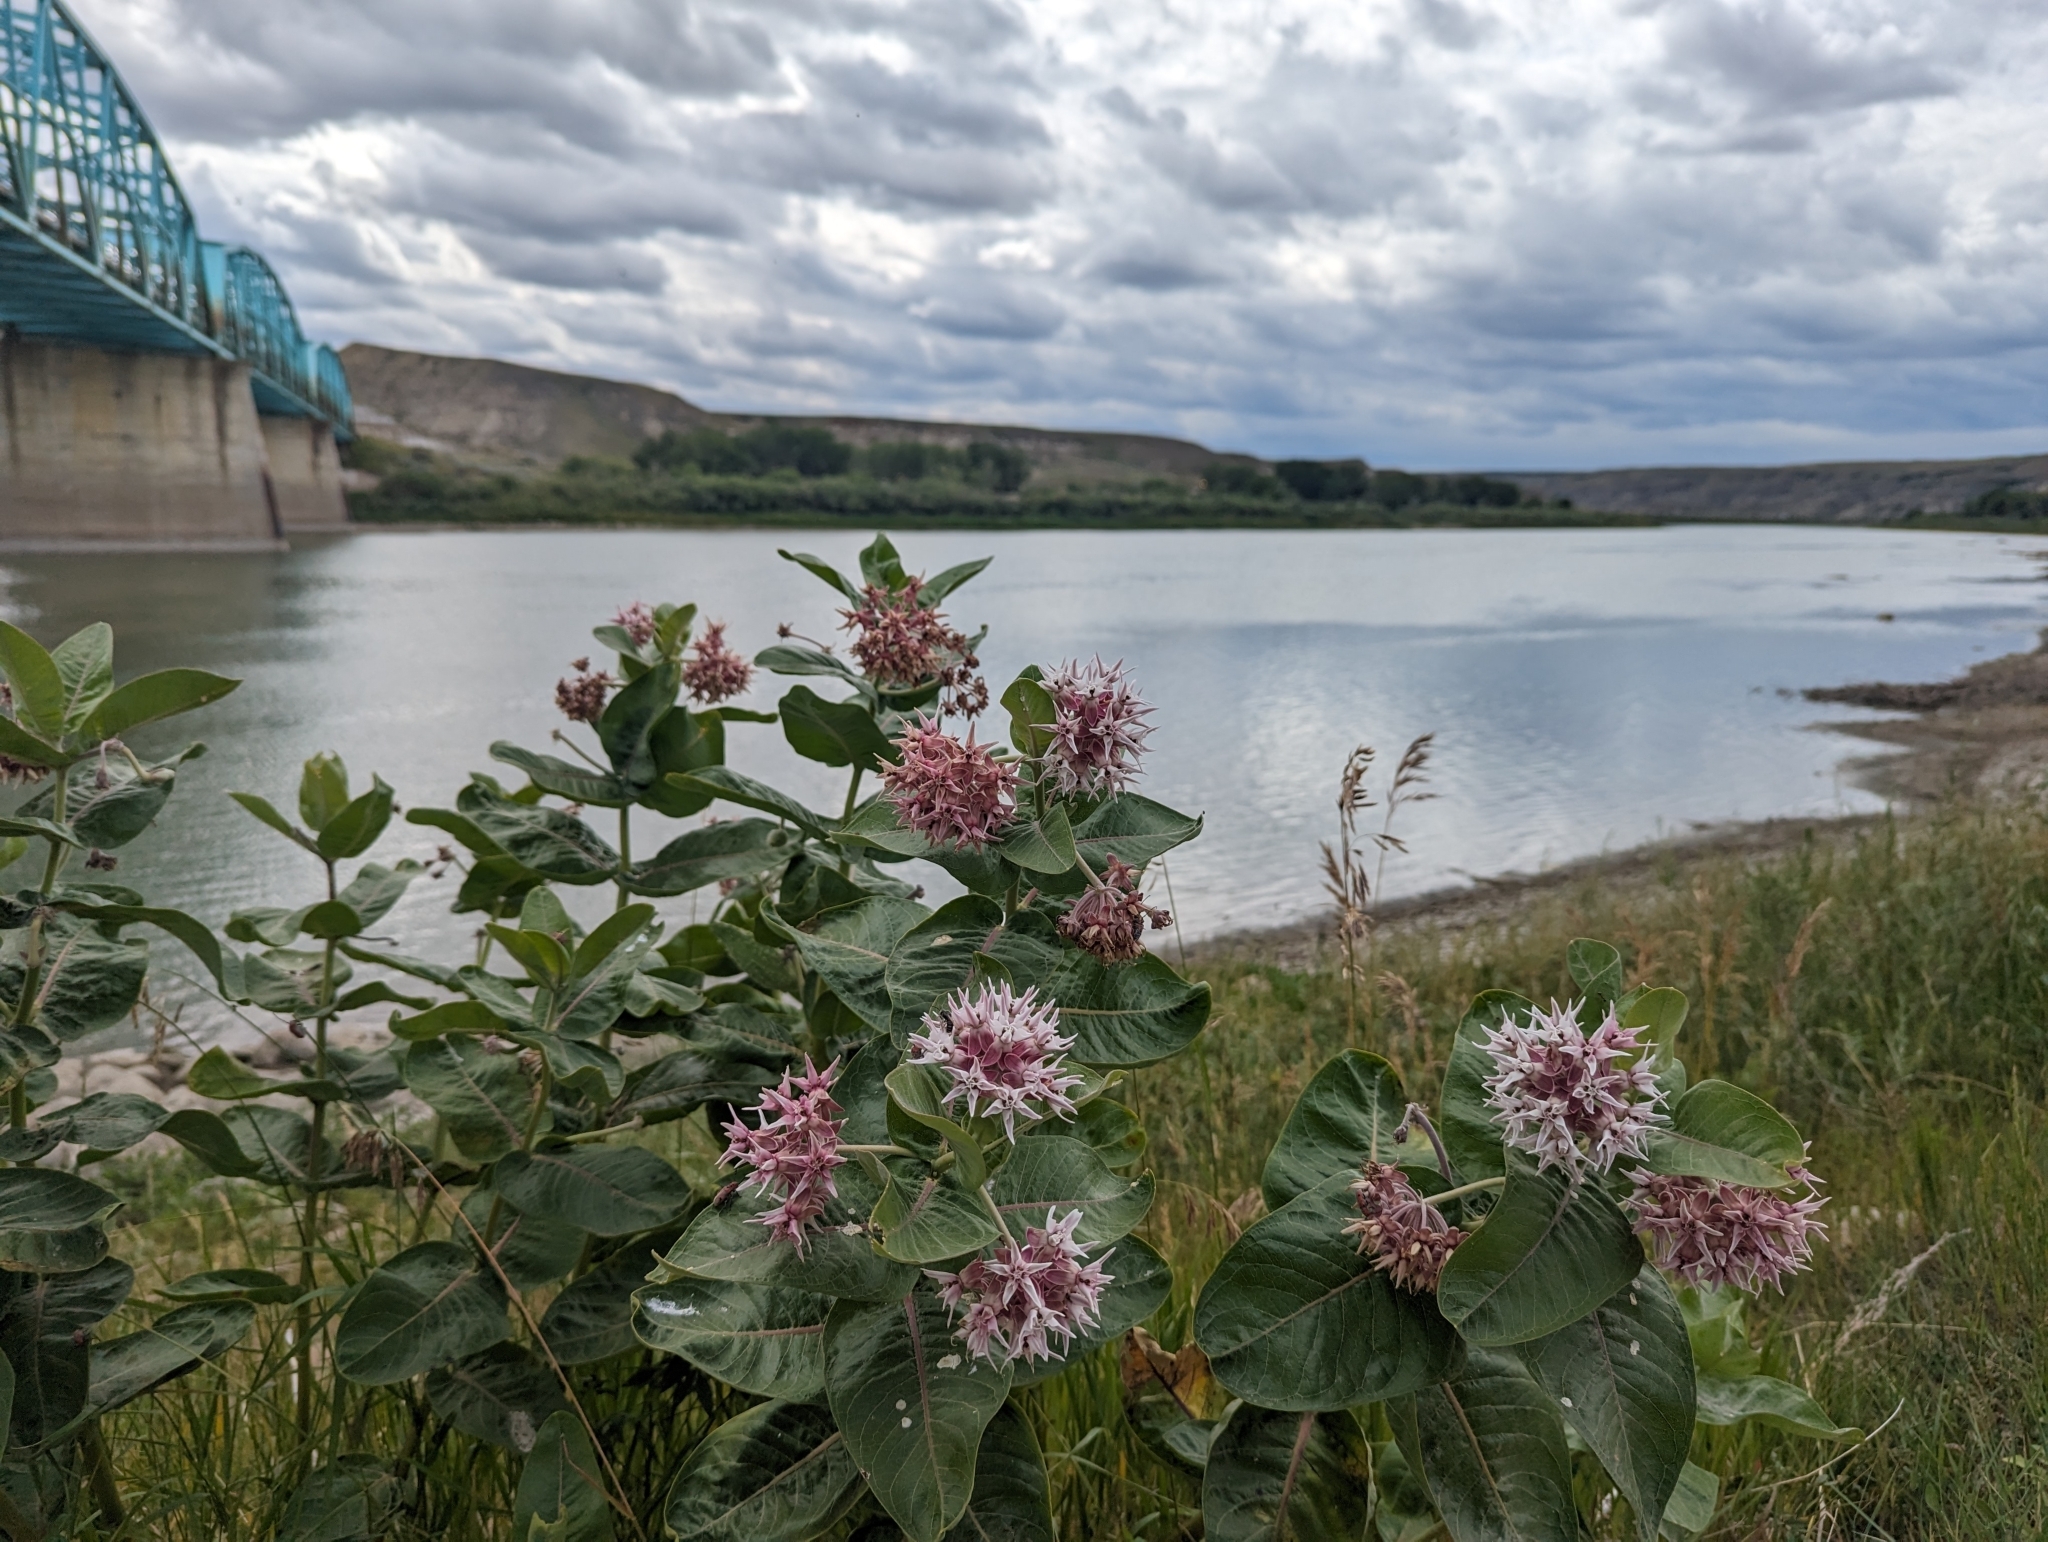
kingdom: Plantae
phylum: Tracheophyta
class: Magnoliopsida
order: Gentianales
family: Apocynaceae
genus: Asclepias
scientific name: Asclepias speciosa
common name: Showy milkweed
